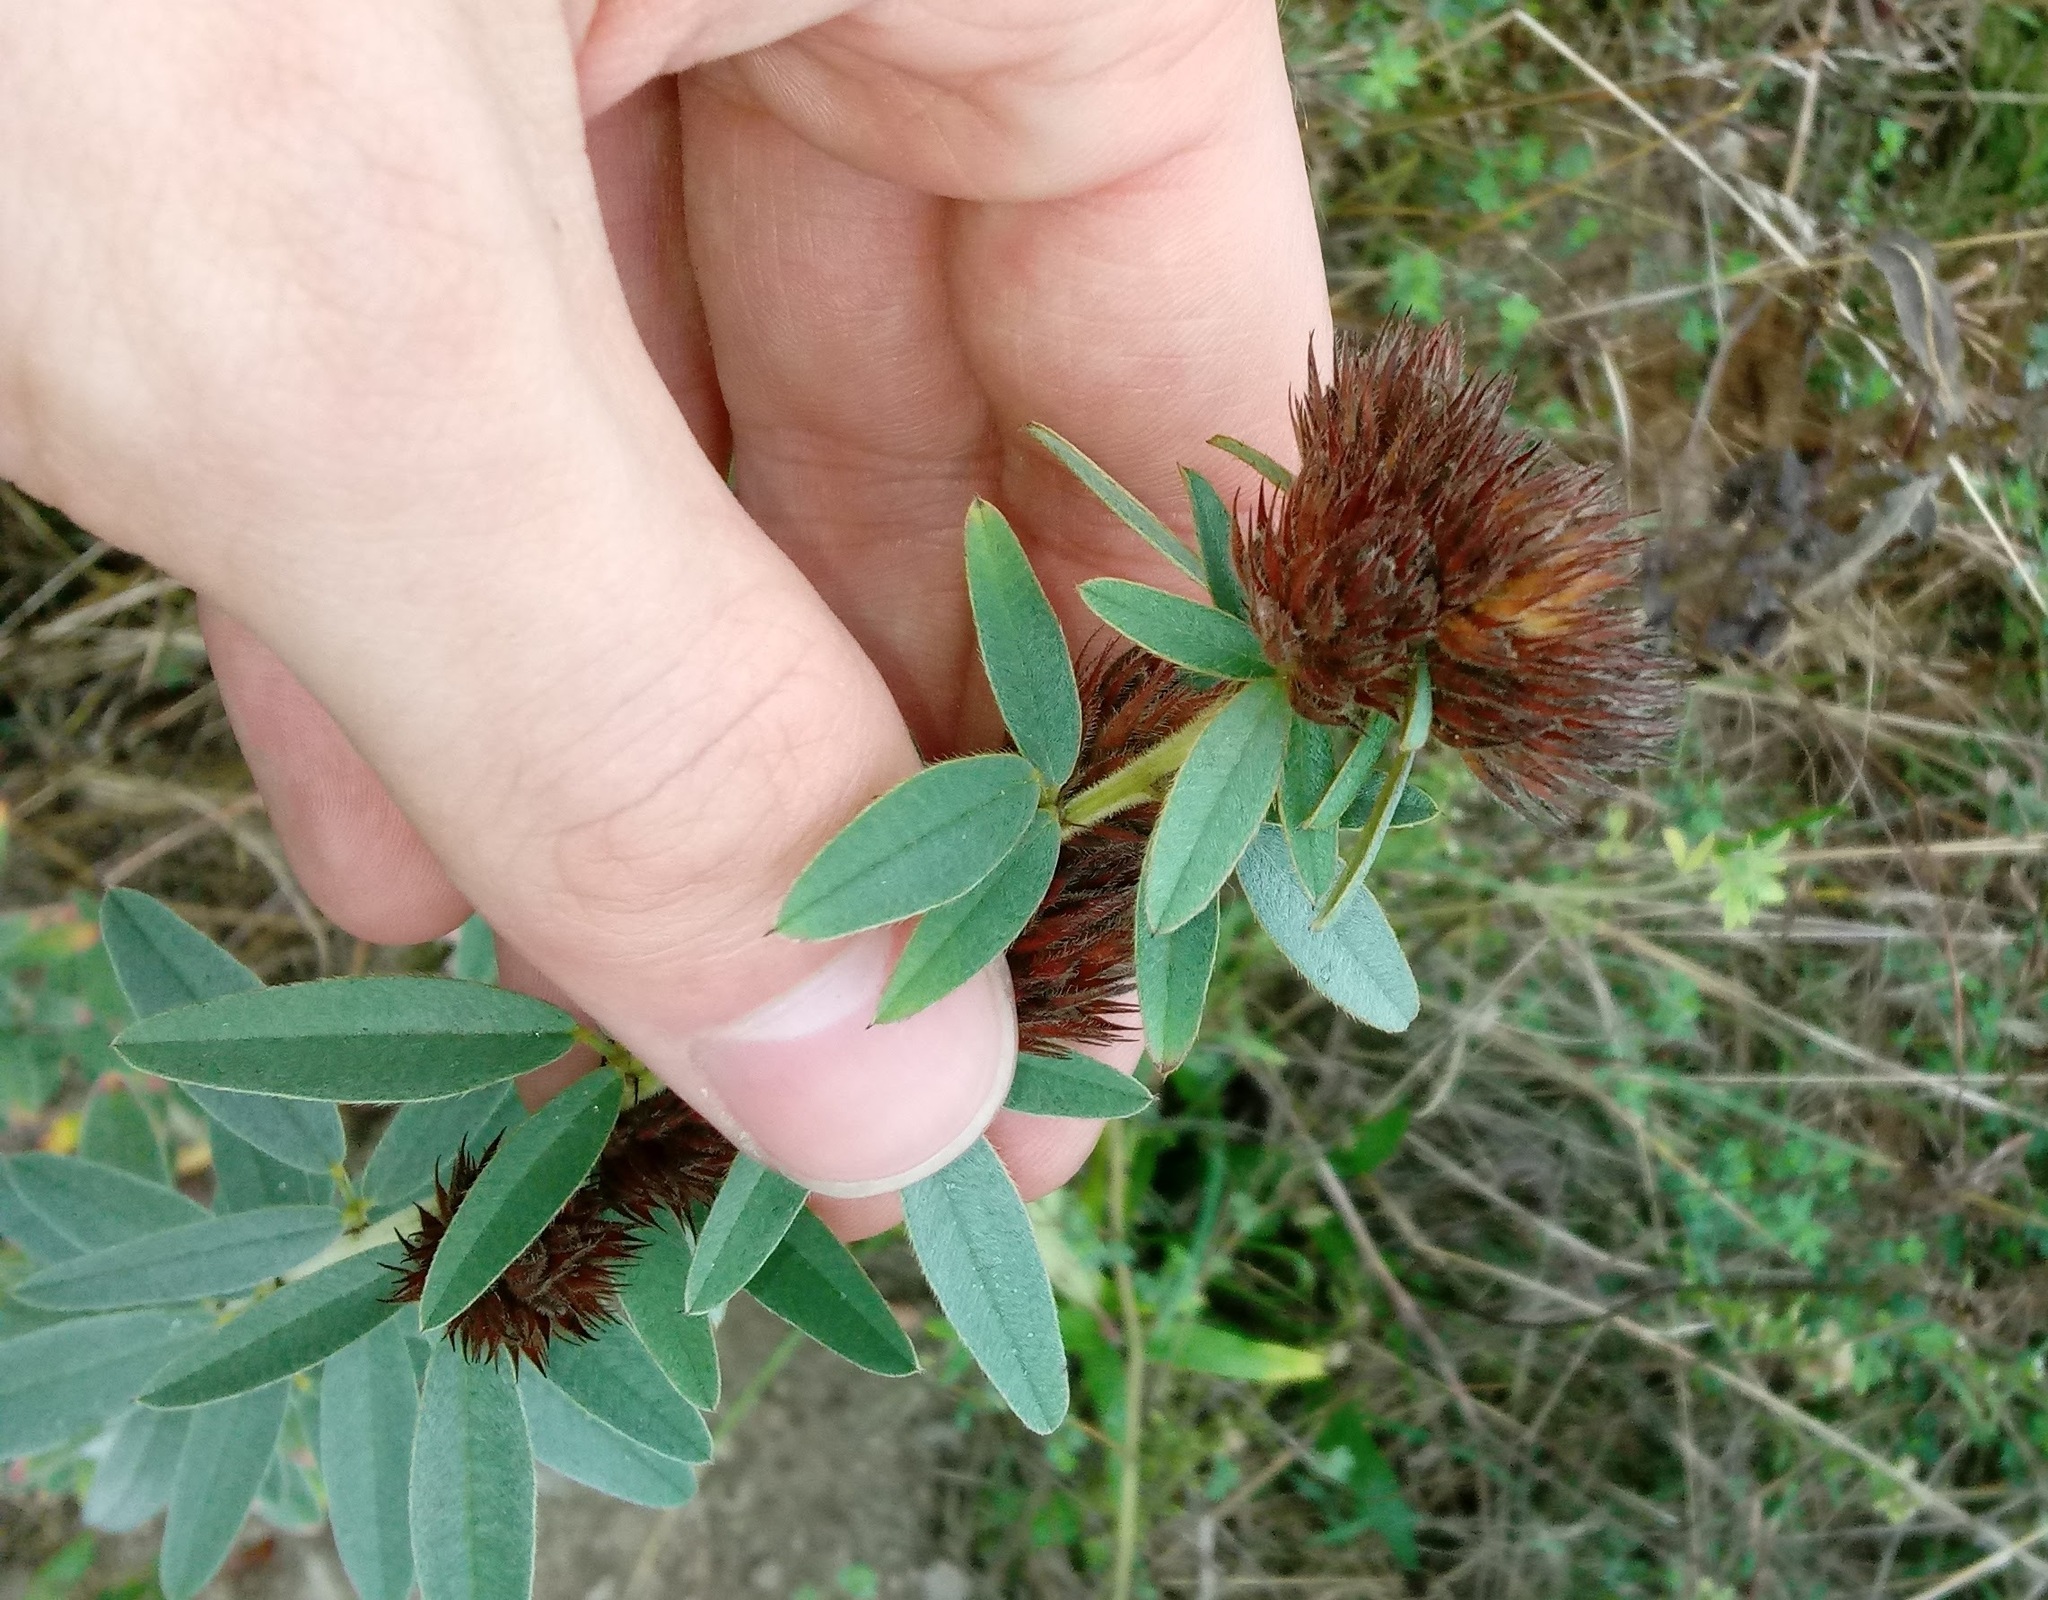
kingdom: Plantae
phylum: Tracheophyta
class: Magnoliopsida
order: Fabales
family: Fabaceae
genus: Lespedeza
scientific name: Lespedeza capitata
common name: Dusty clover
